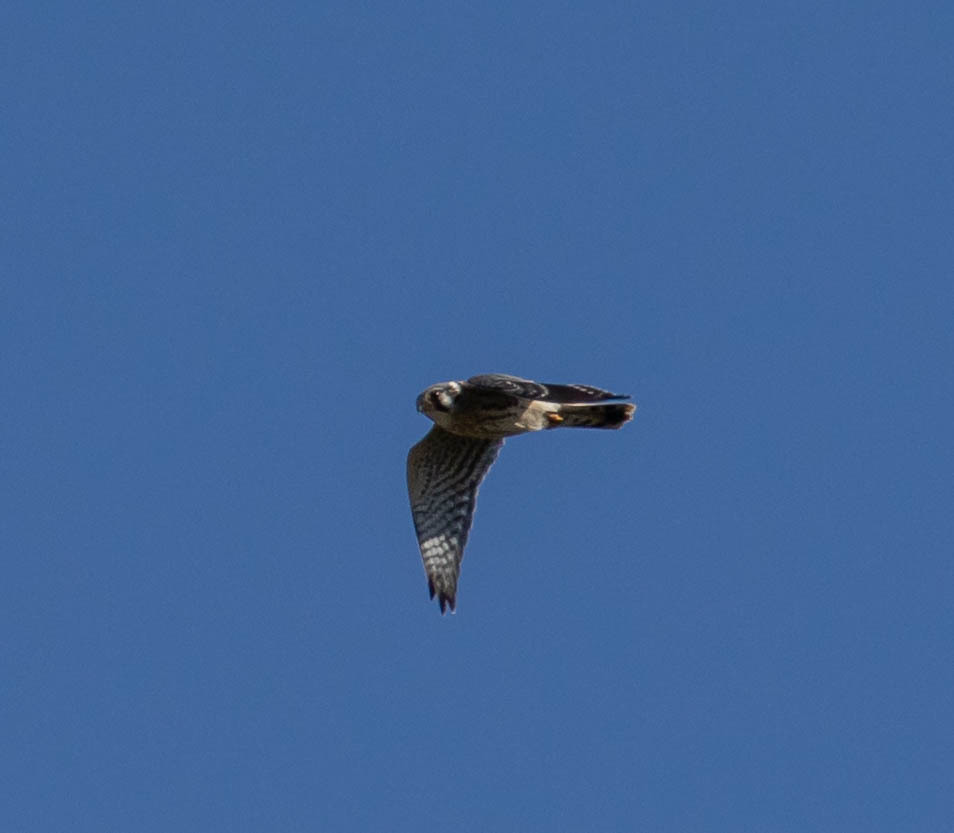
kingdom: Animalia
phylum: Chordata
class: Aves
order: Falconiformes
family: Falconidae
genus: Falco
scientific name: Falco sparverius
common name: American kestrel
